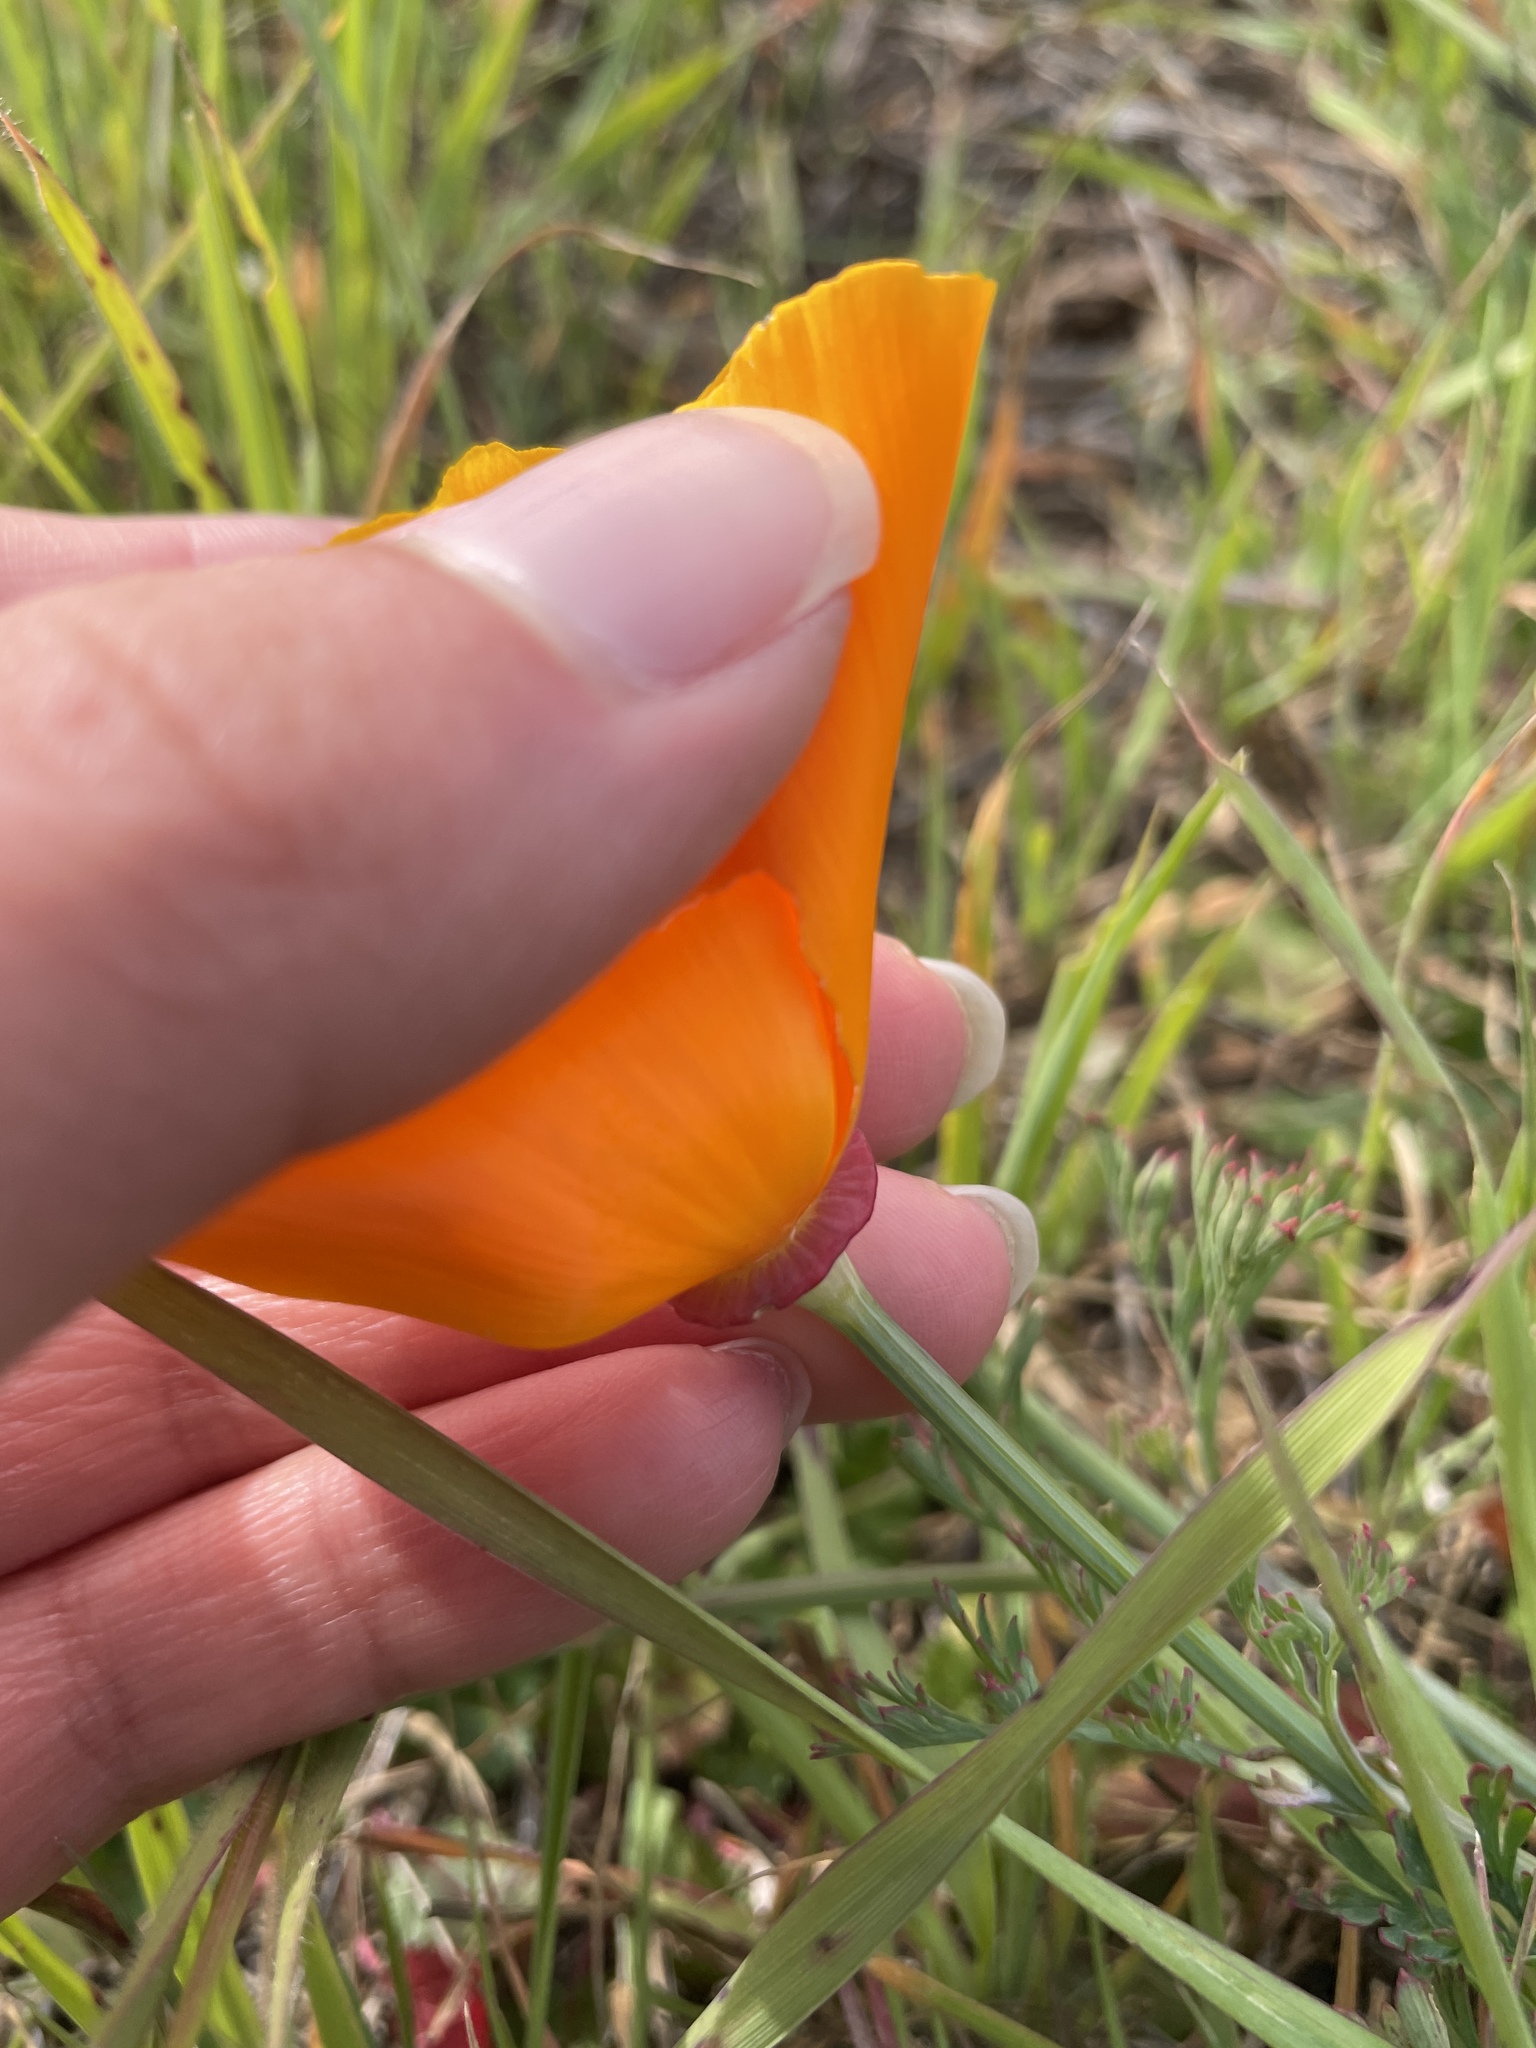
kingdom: Plantae
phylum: Tracheophyta
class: Magnoliopsida
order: Ranunculales
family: Papaveraceae
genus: Eschscholzia
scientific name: Eschscholzia californica
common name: California poppy
